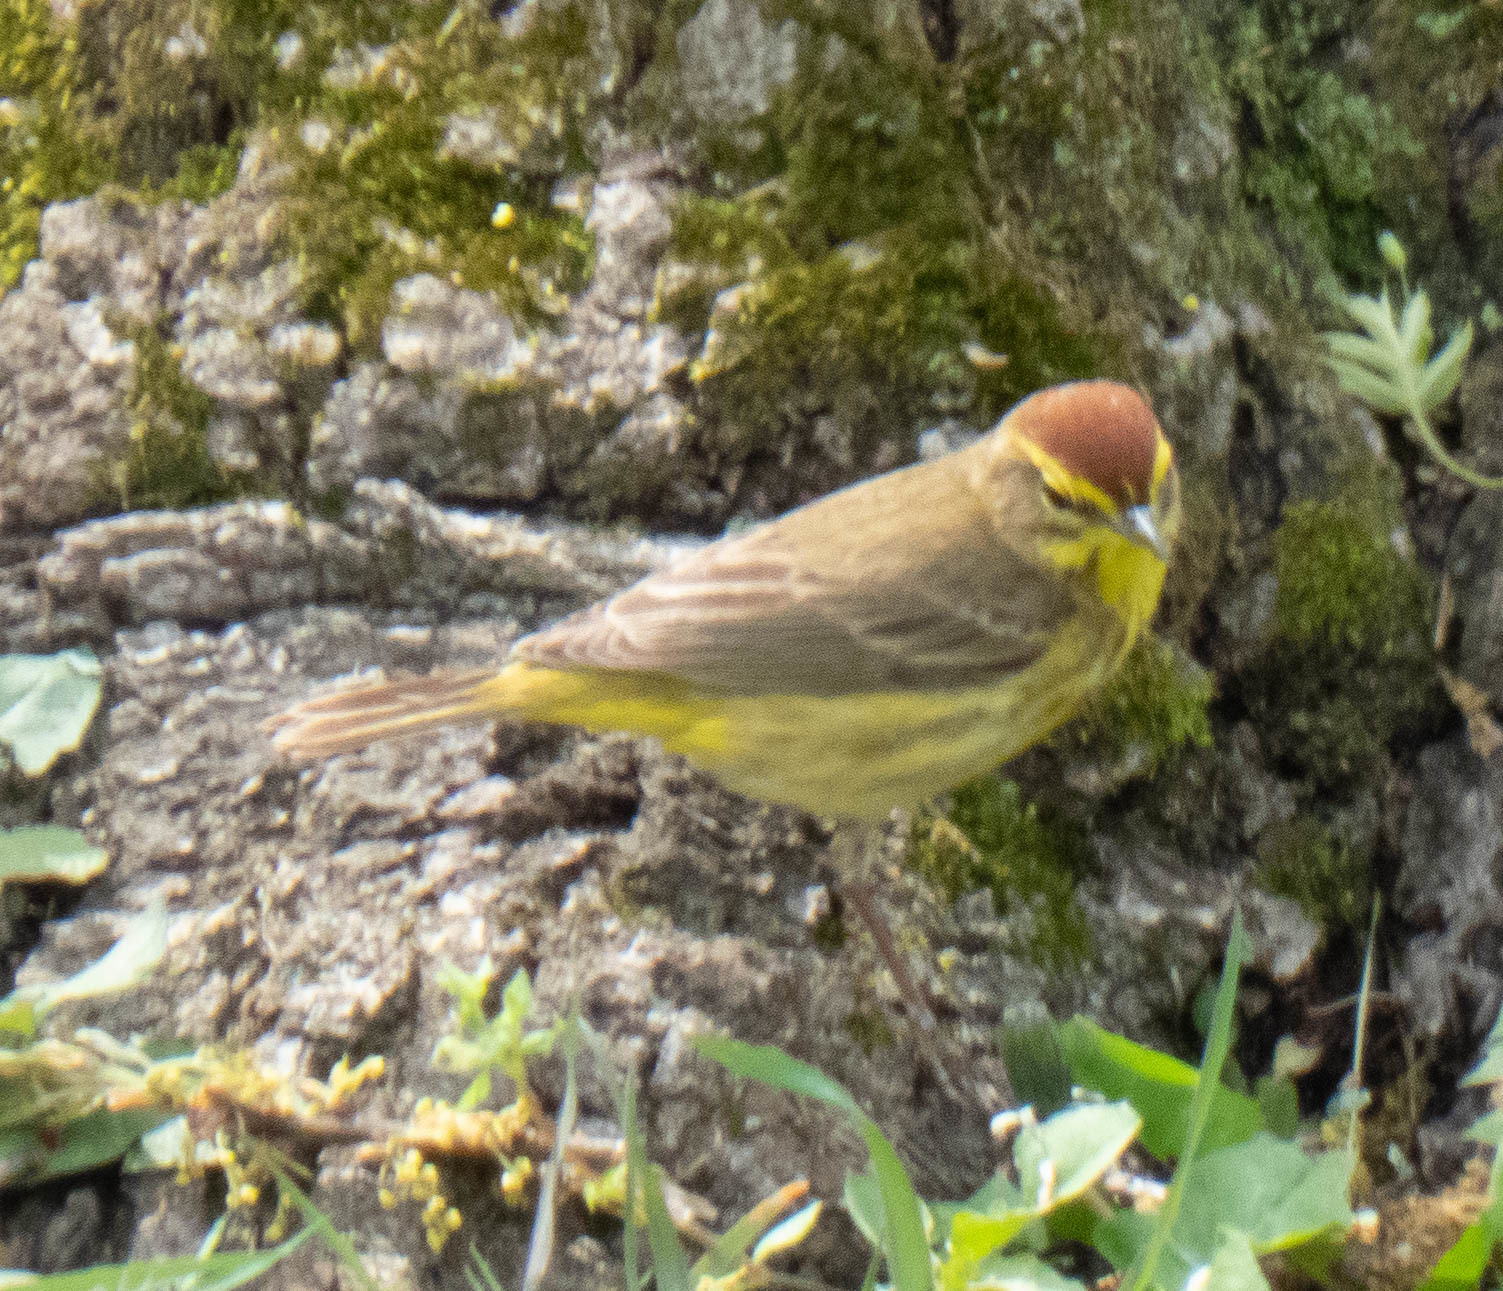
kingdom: Animalia
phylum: Chordata
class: Aves
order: Passeriformes
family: Parulidae
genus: Setophaga
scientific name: Setophaga palmarum
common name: Palm warbler
